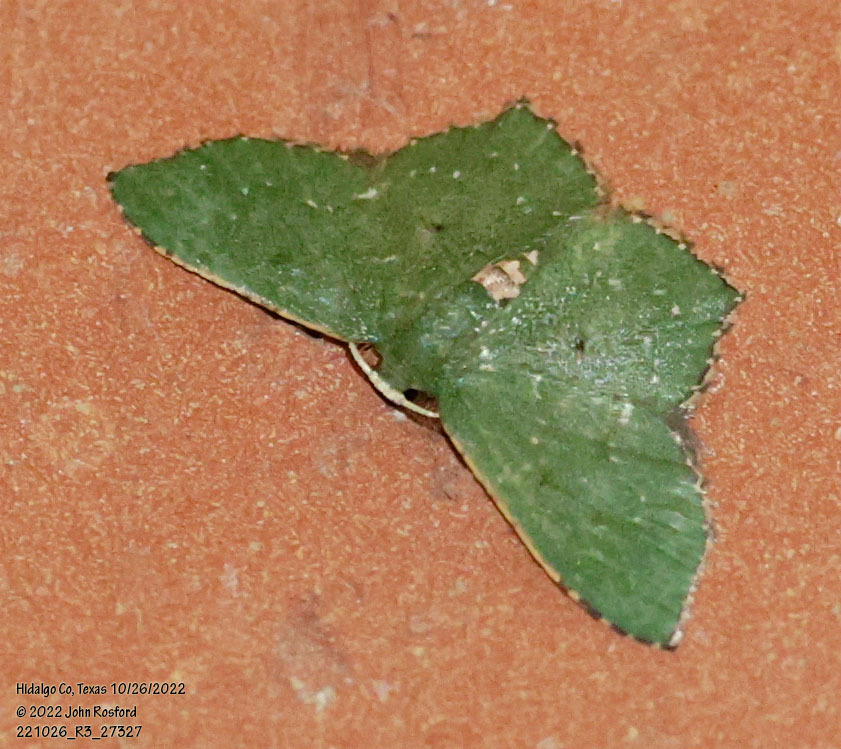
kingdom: Animalia
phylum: Arthropoda
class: Insecta
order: Lepidoptera
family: Geometridae
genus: Chloropteryx
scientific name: Chloropteryx nordicaria
